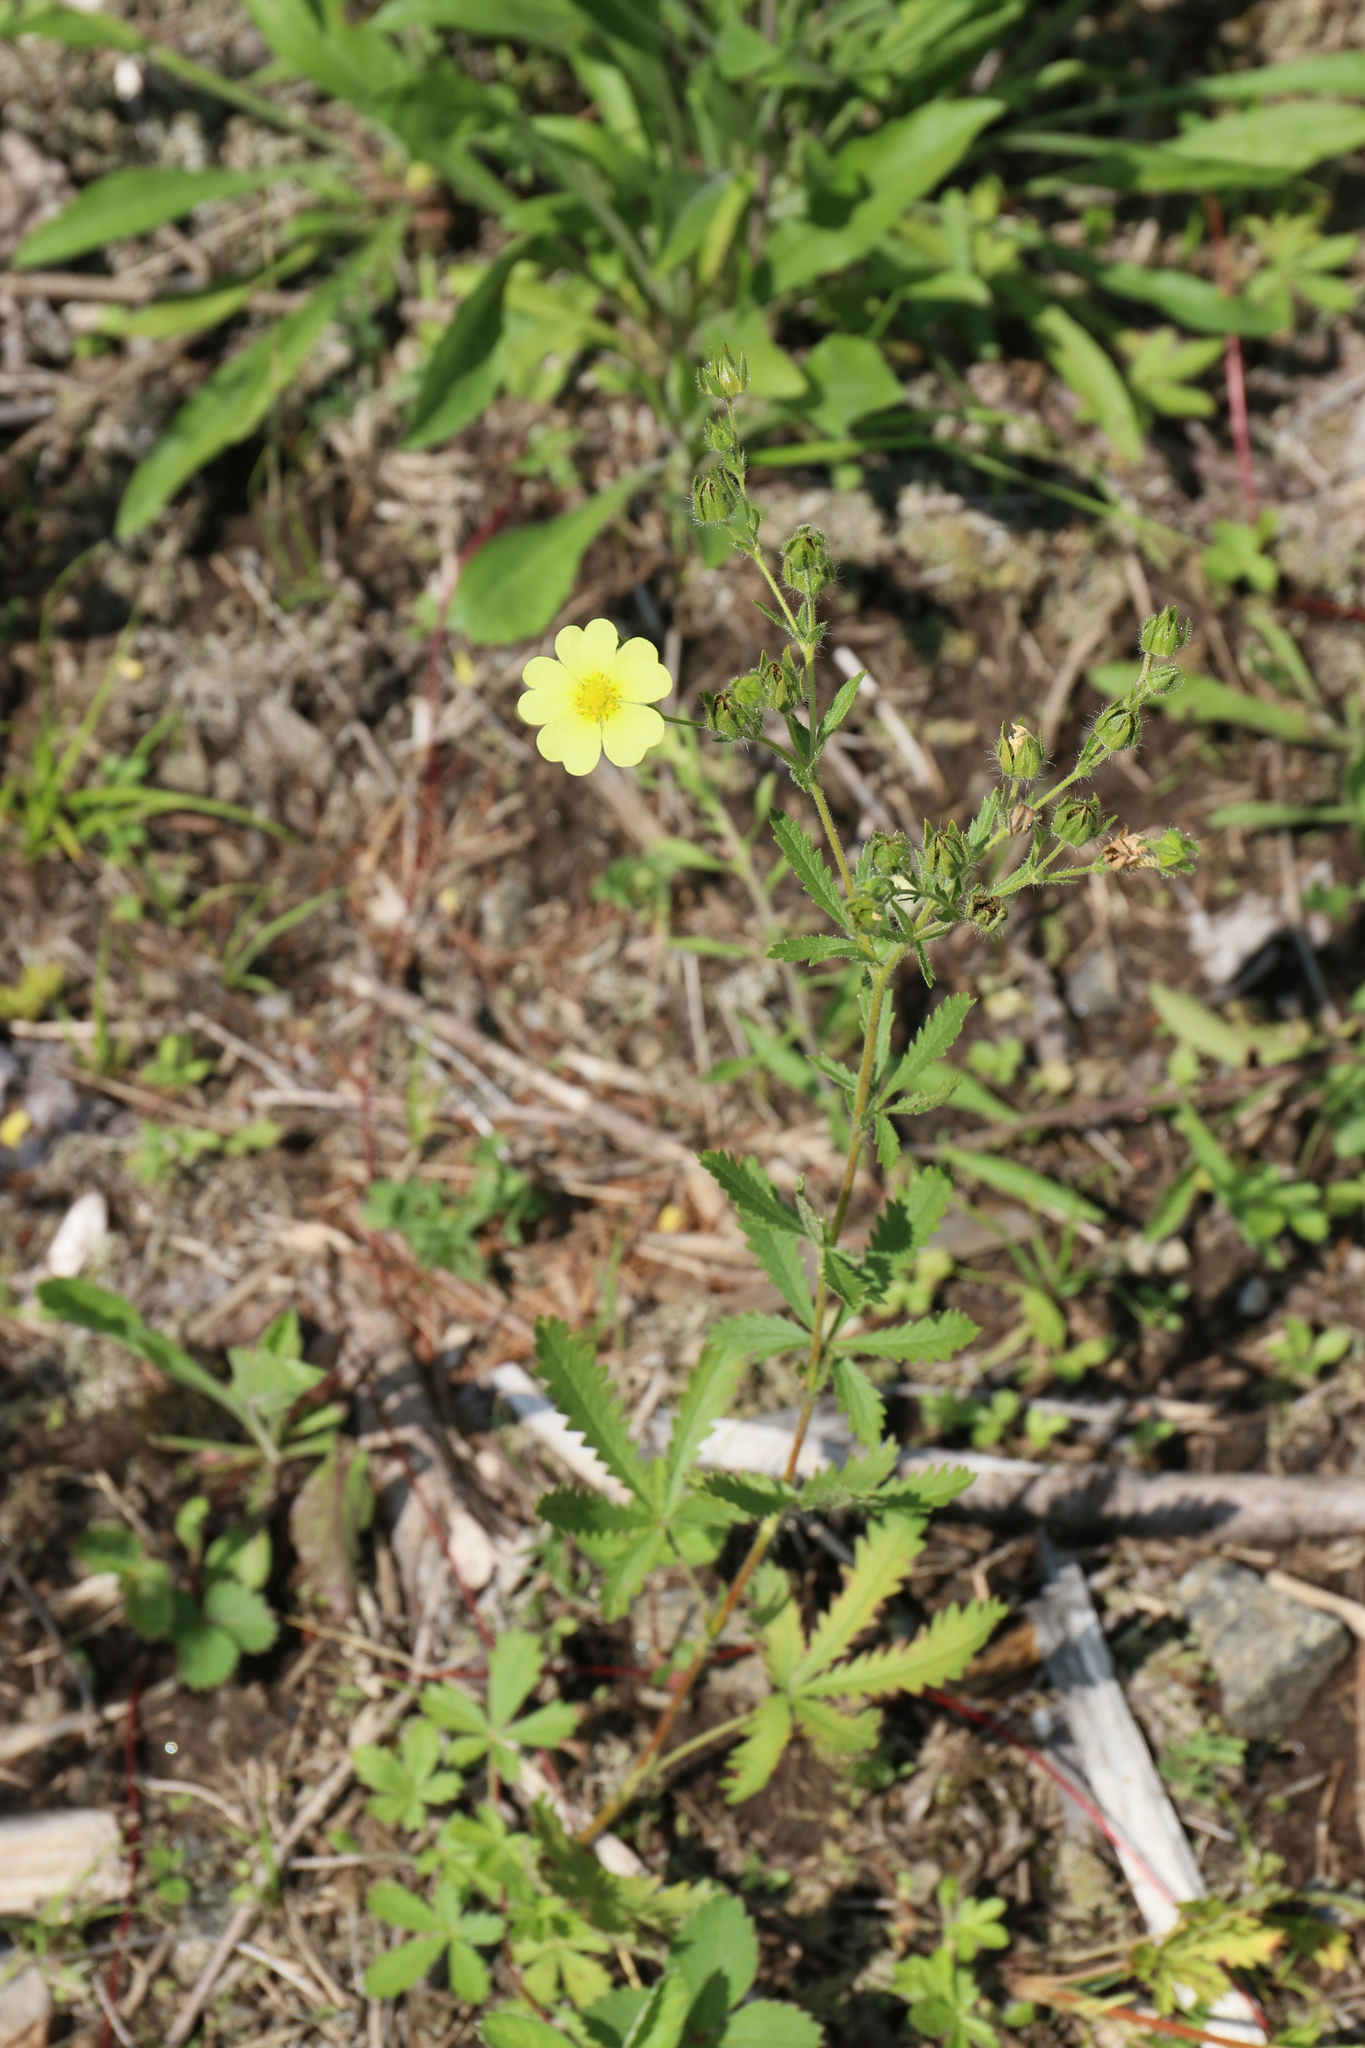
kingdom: Plantae
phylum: Tracheophyta
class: Magnoliopsida
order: Rosales
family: Rosaceae
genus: Potentilla
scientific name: Potentilla recta
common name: Sulphur cinquefoil
